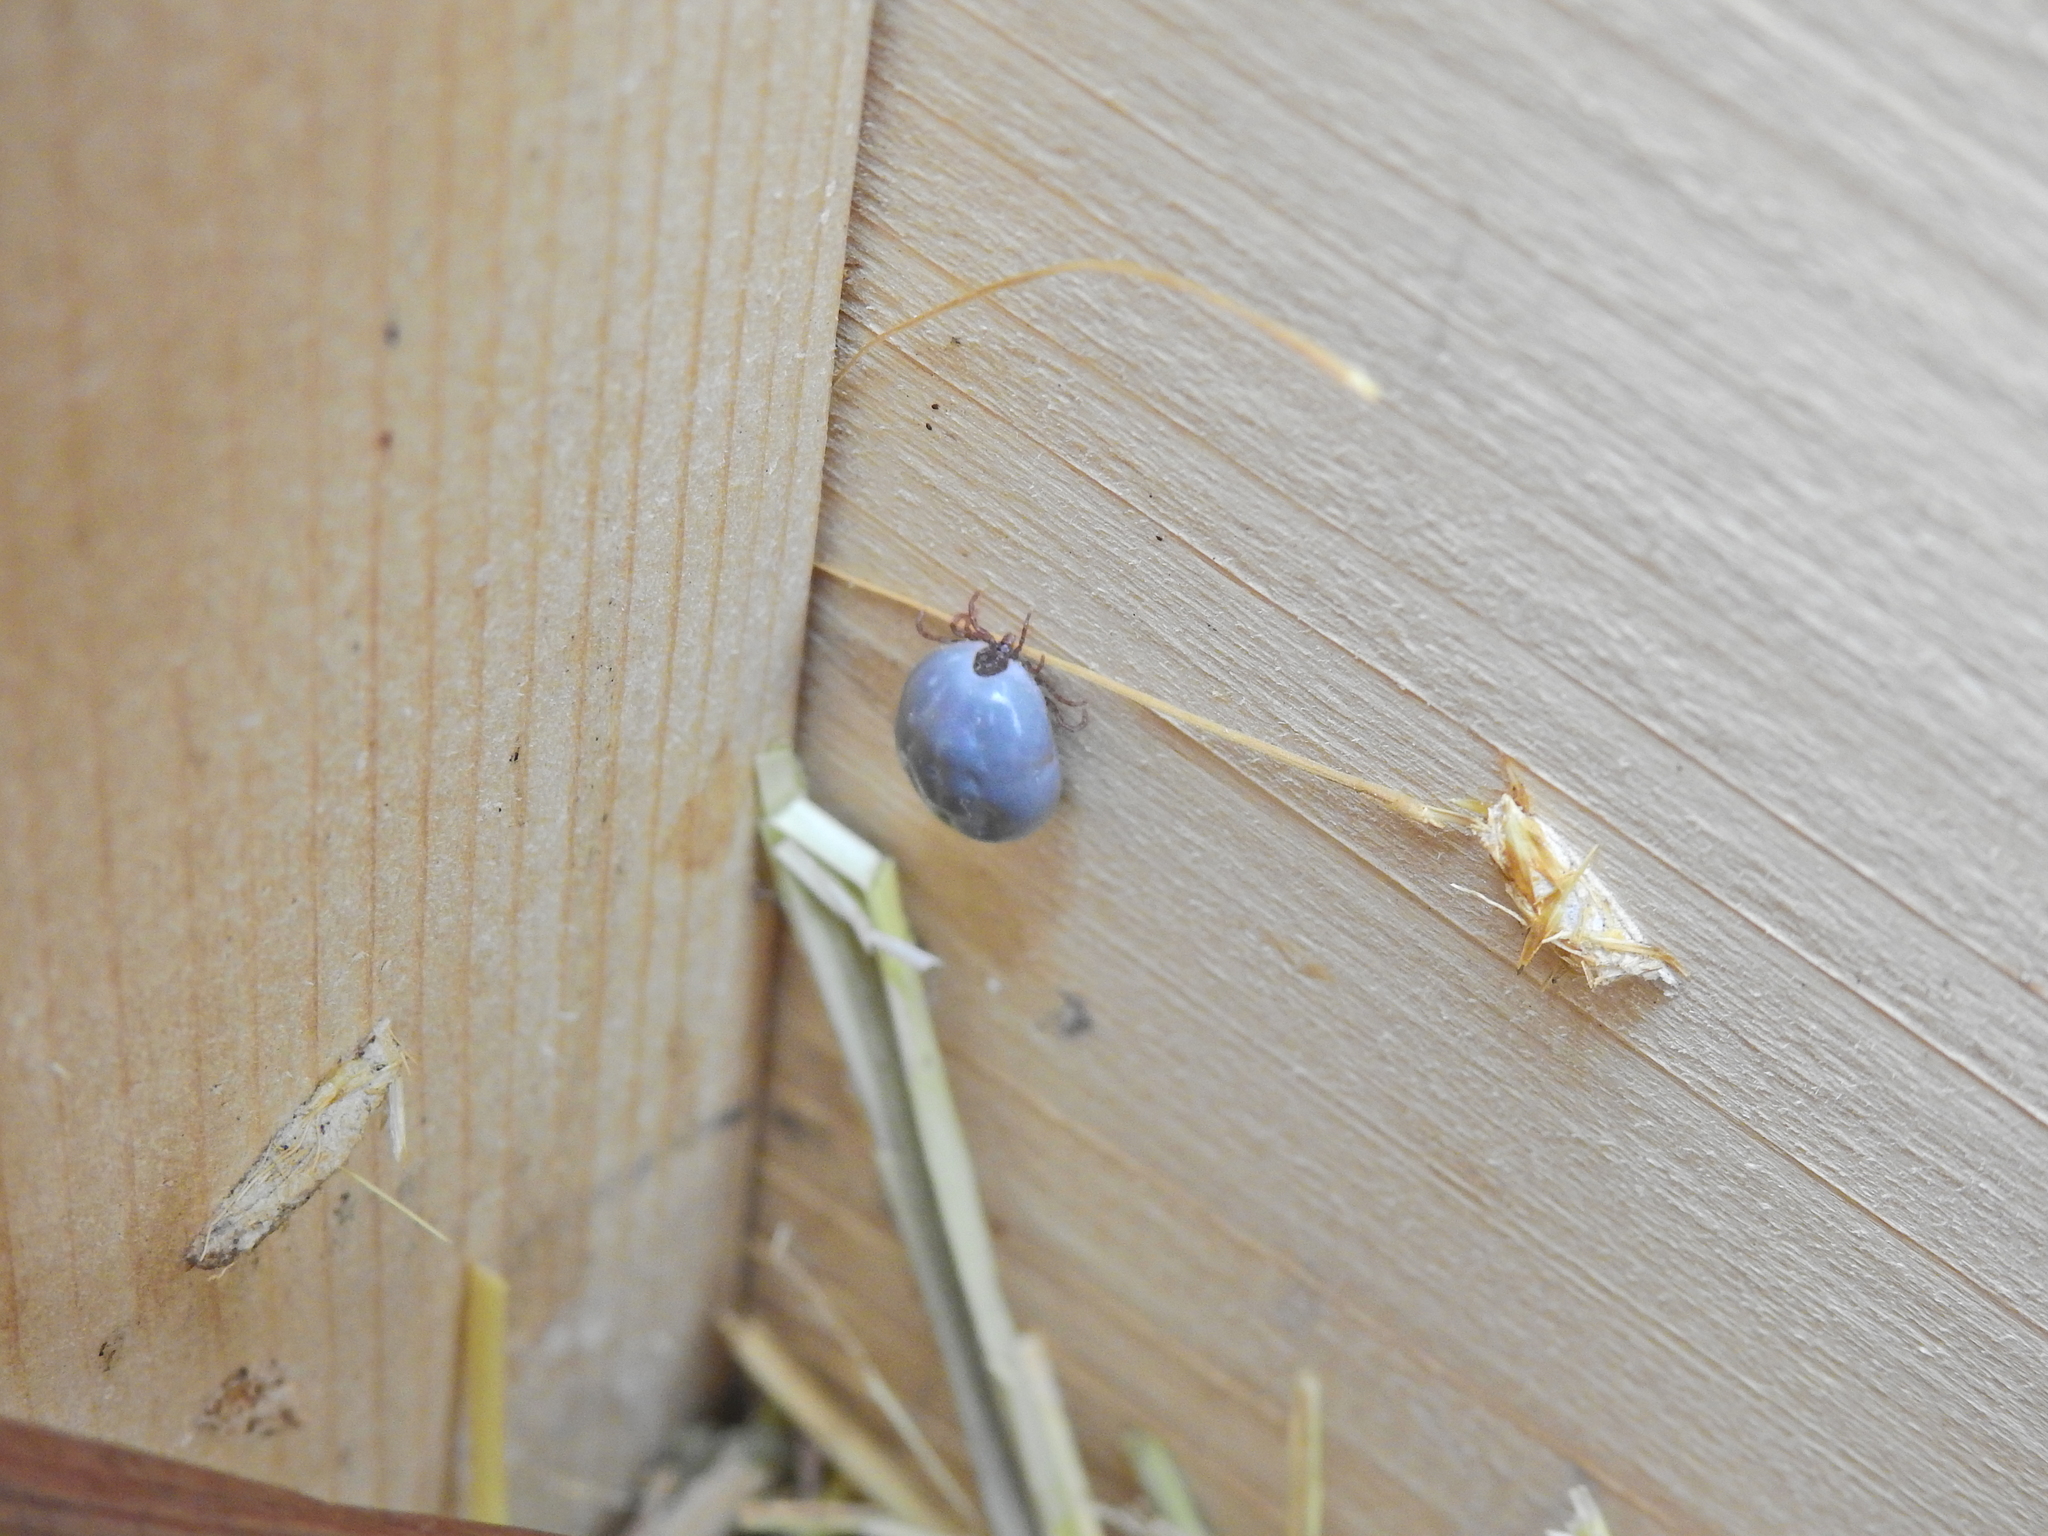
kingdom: Animalia
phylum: Arthropoda
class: Arachnida
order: Ixodida
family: Ixodidae
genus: Ixodes
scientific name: Ixodes hexagonus
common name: Hedgehog tick
